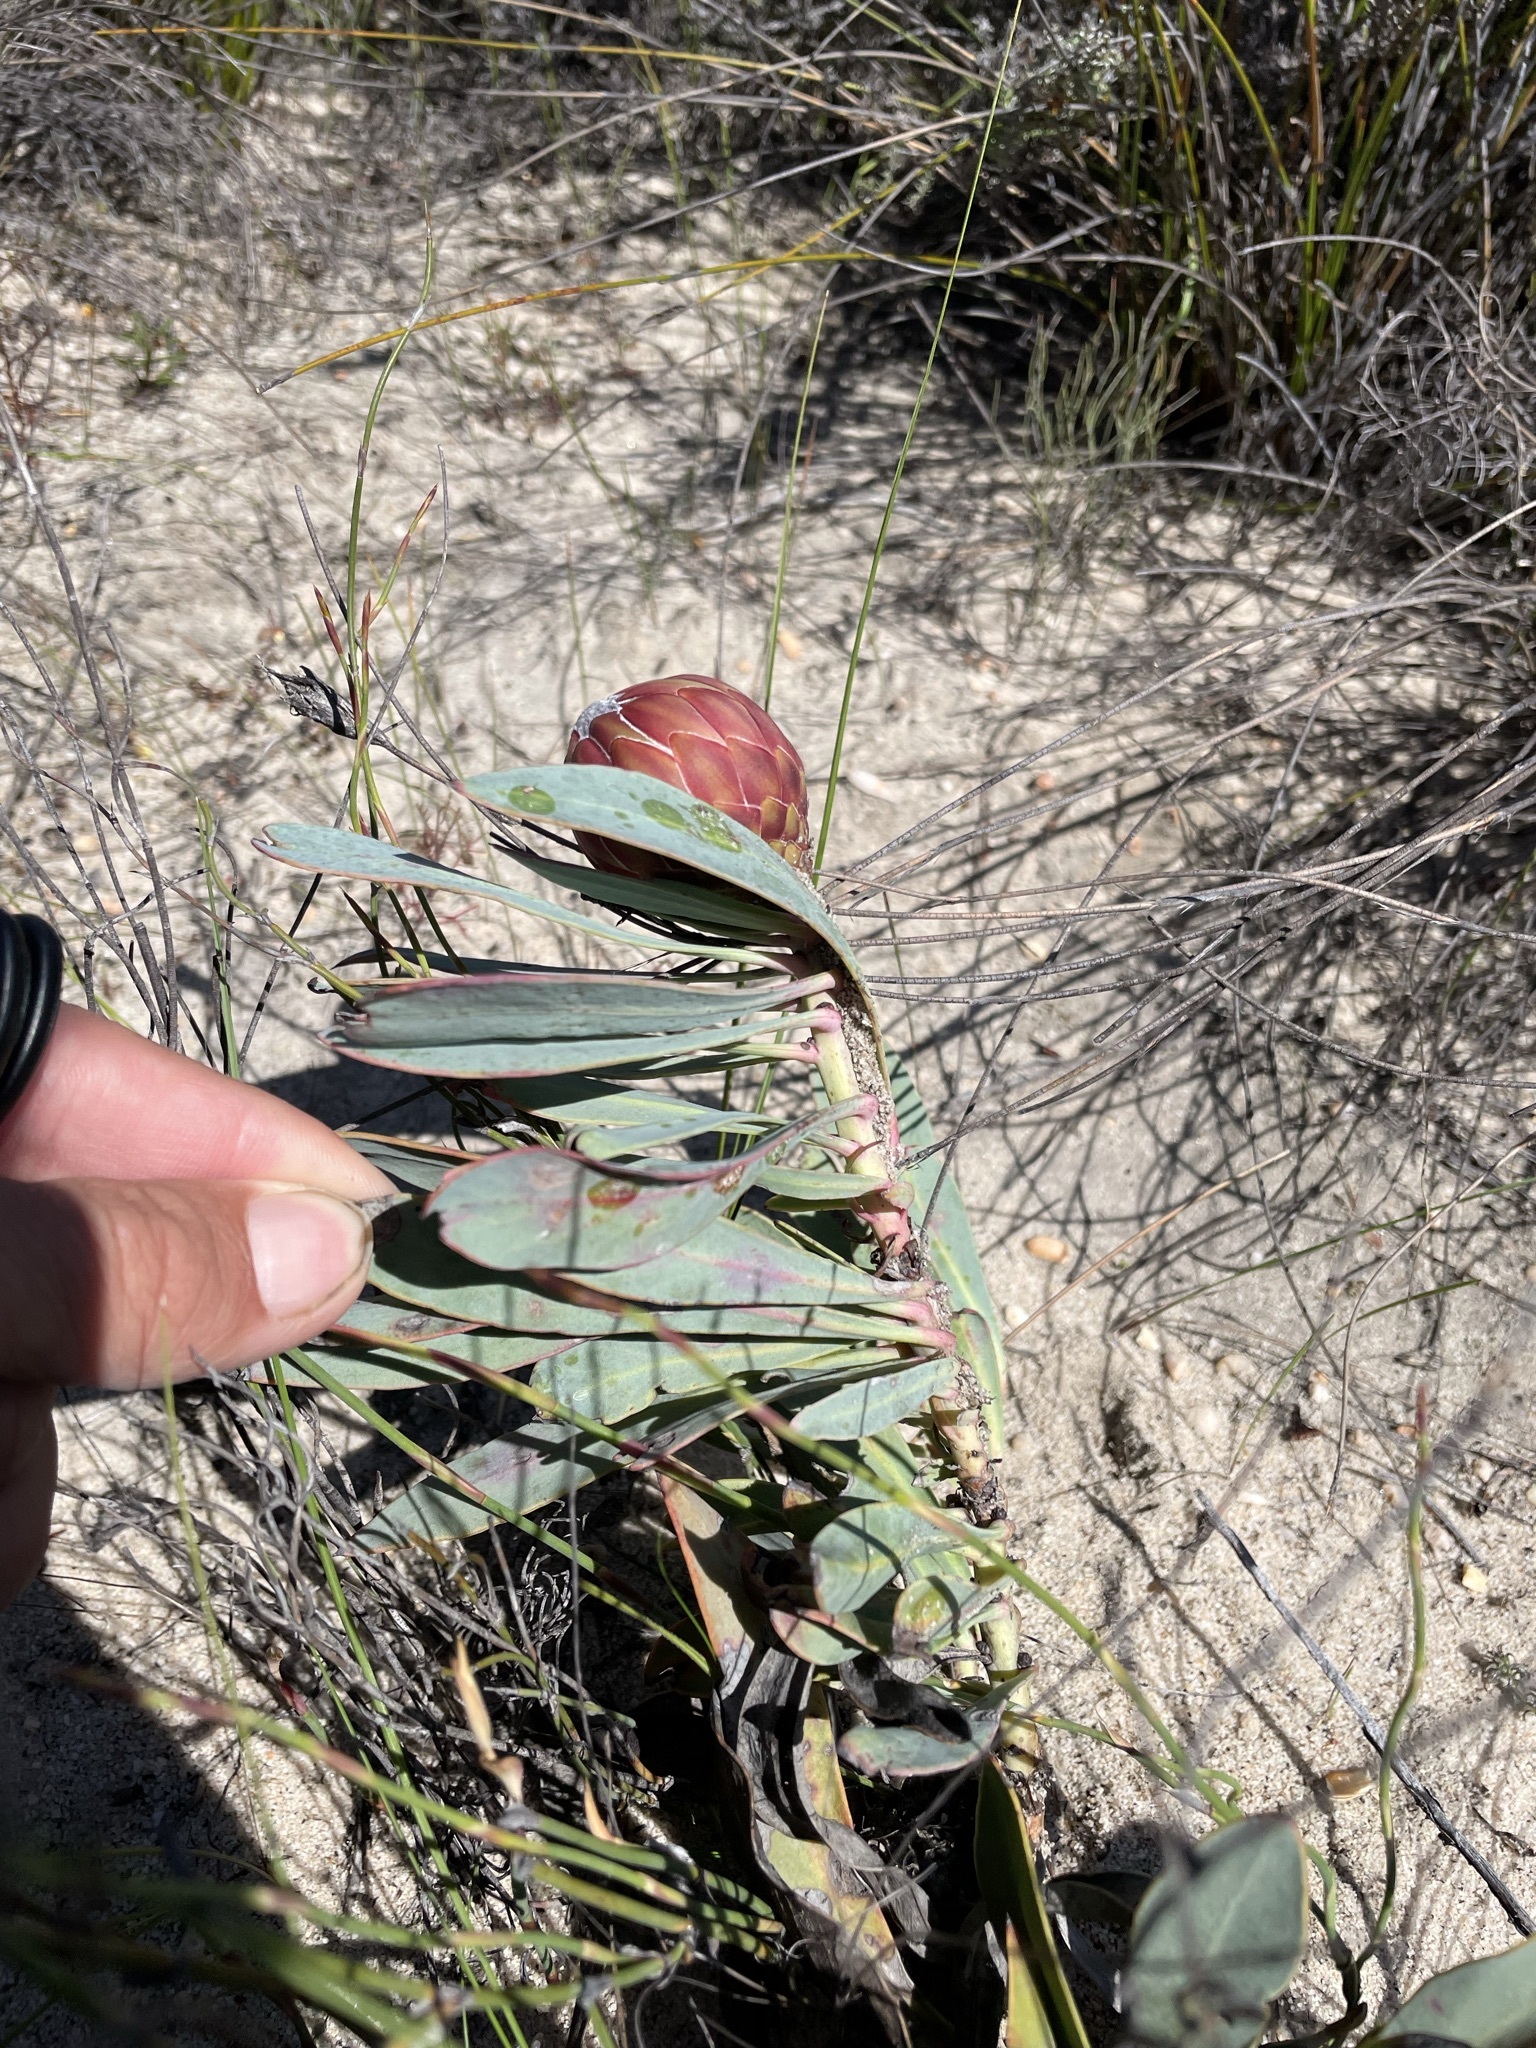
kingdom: Plantae
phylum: Tracheophyta
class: Magnoliopsida
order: Proteales
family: Proteaceae
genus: Protea
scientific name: Protea acaulos
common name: Common ground sugarbush
